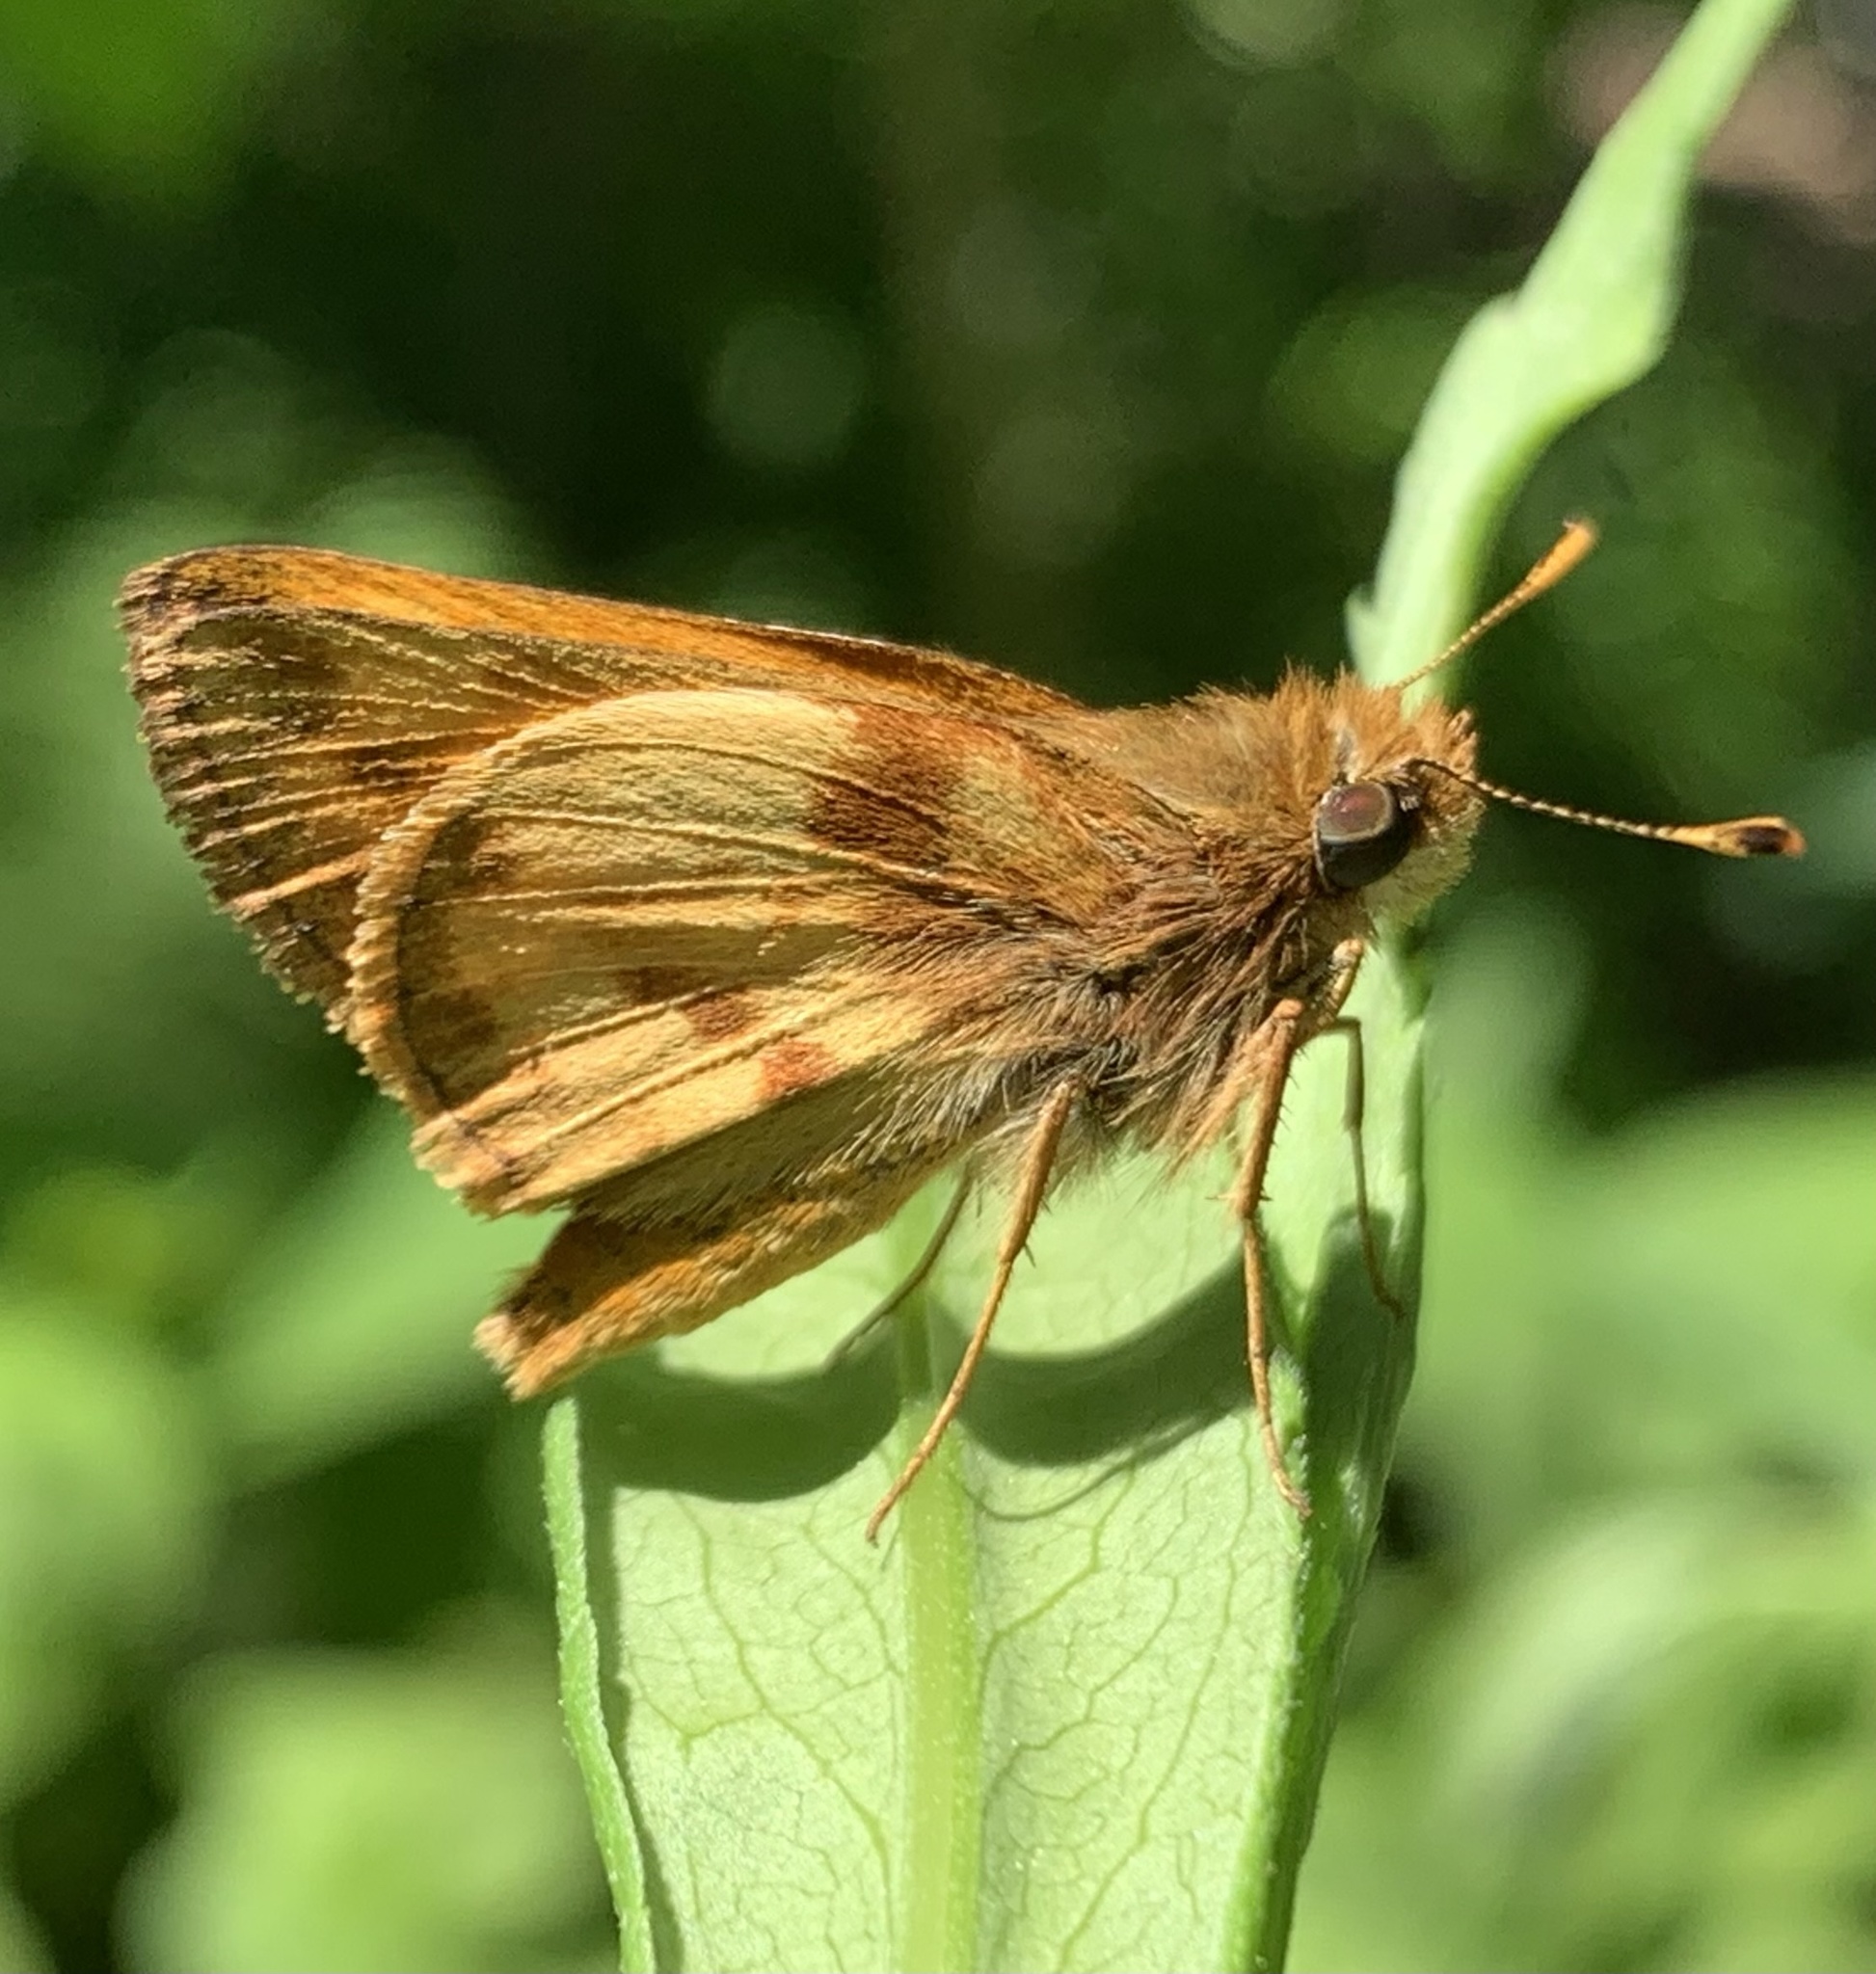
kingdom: Animalia
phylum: Arthropoda
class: Insecta
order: Lepidoptera
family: Hesperiidae
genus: Lon
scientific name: Lon zabulon
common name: Zabulon skipper
